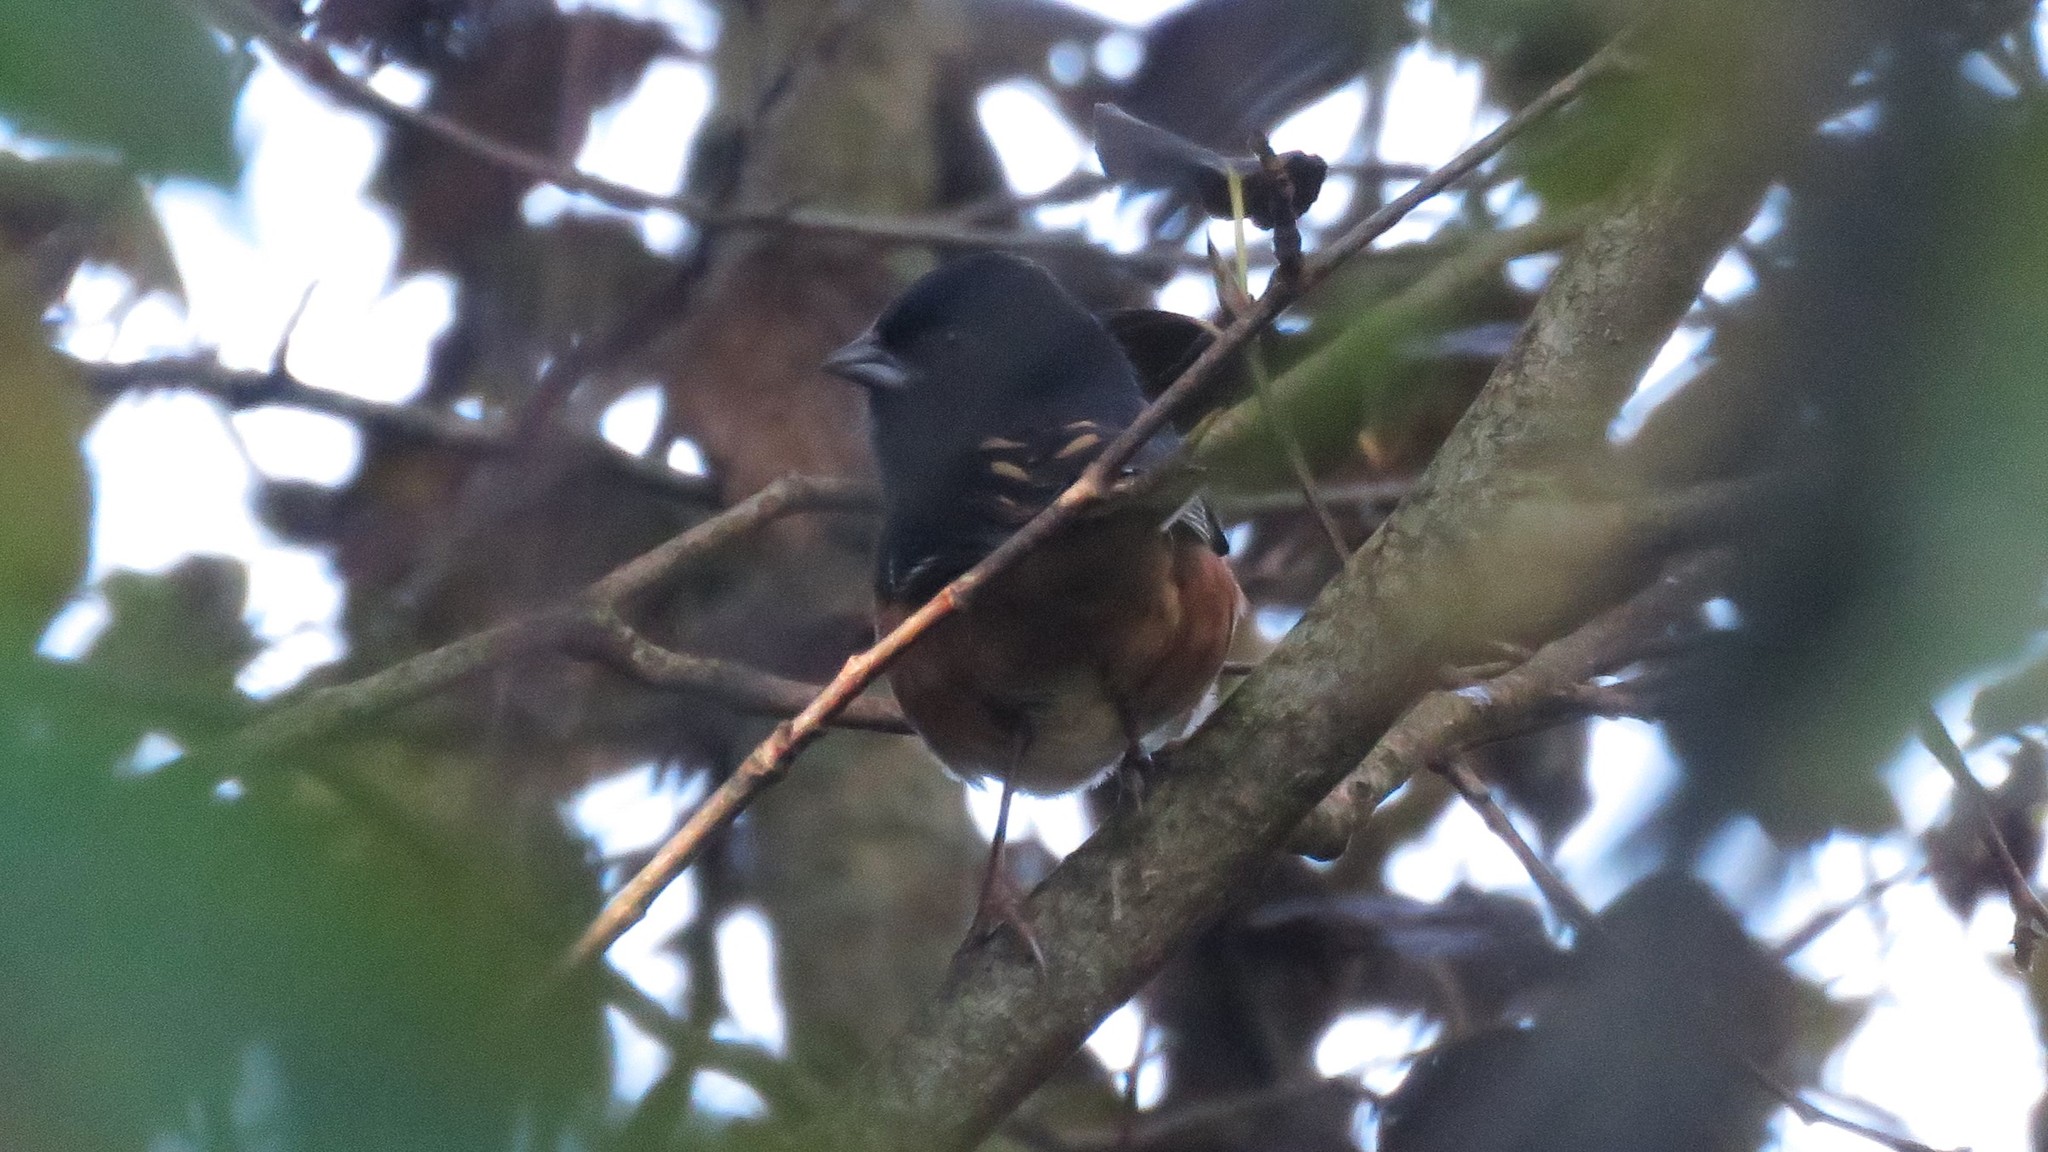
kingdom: Animalia
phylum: Chordata
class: Aves
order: Passeriformes
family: Passerellidae
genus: Pipilo
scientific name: Pipilo erythrophthalmus
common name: Eastern towhee
